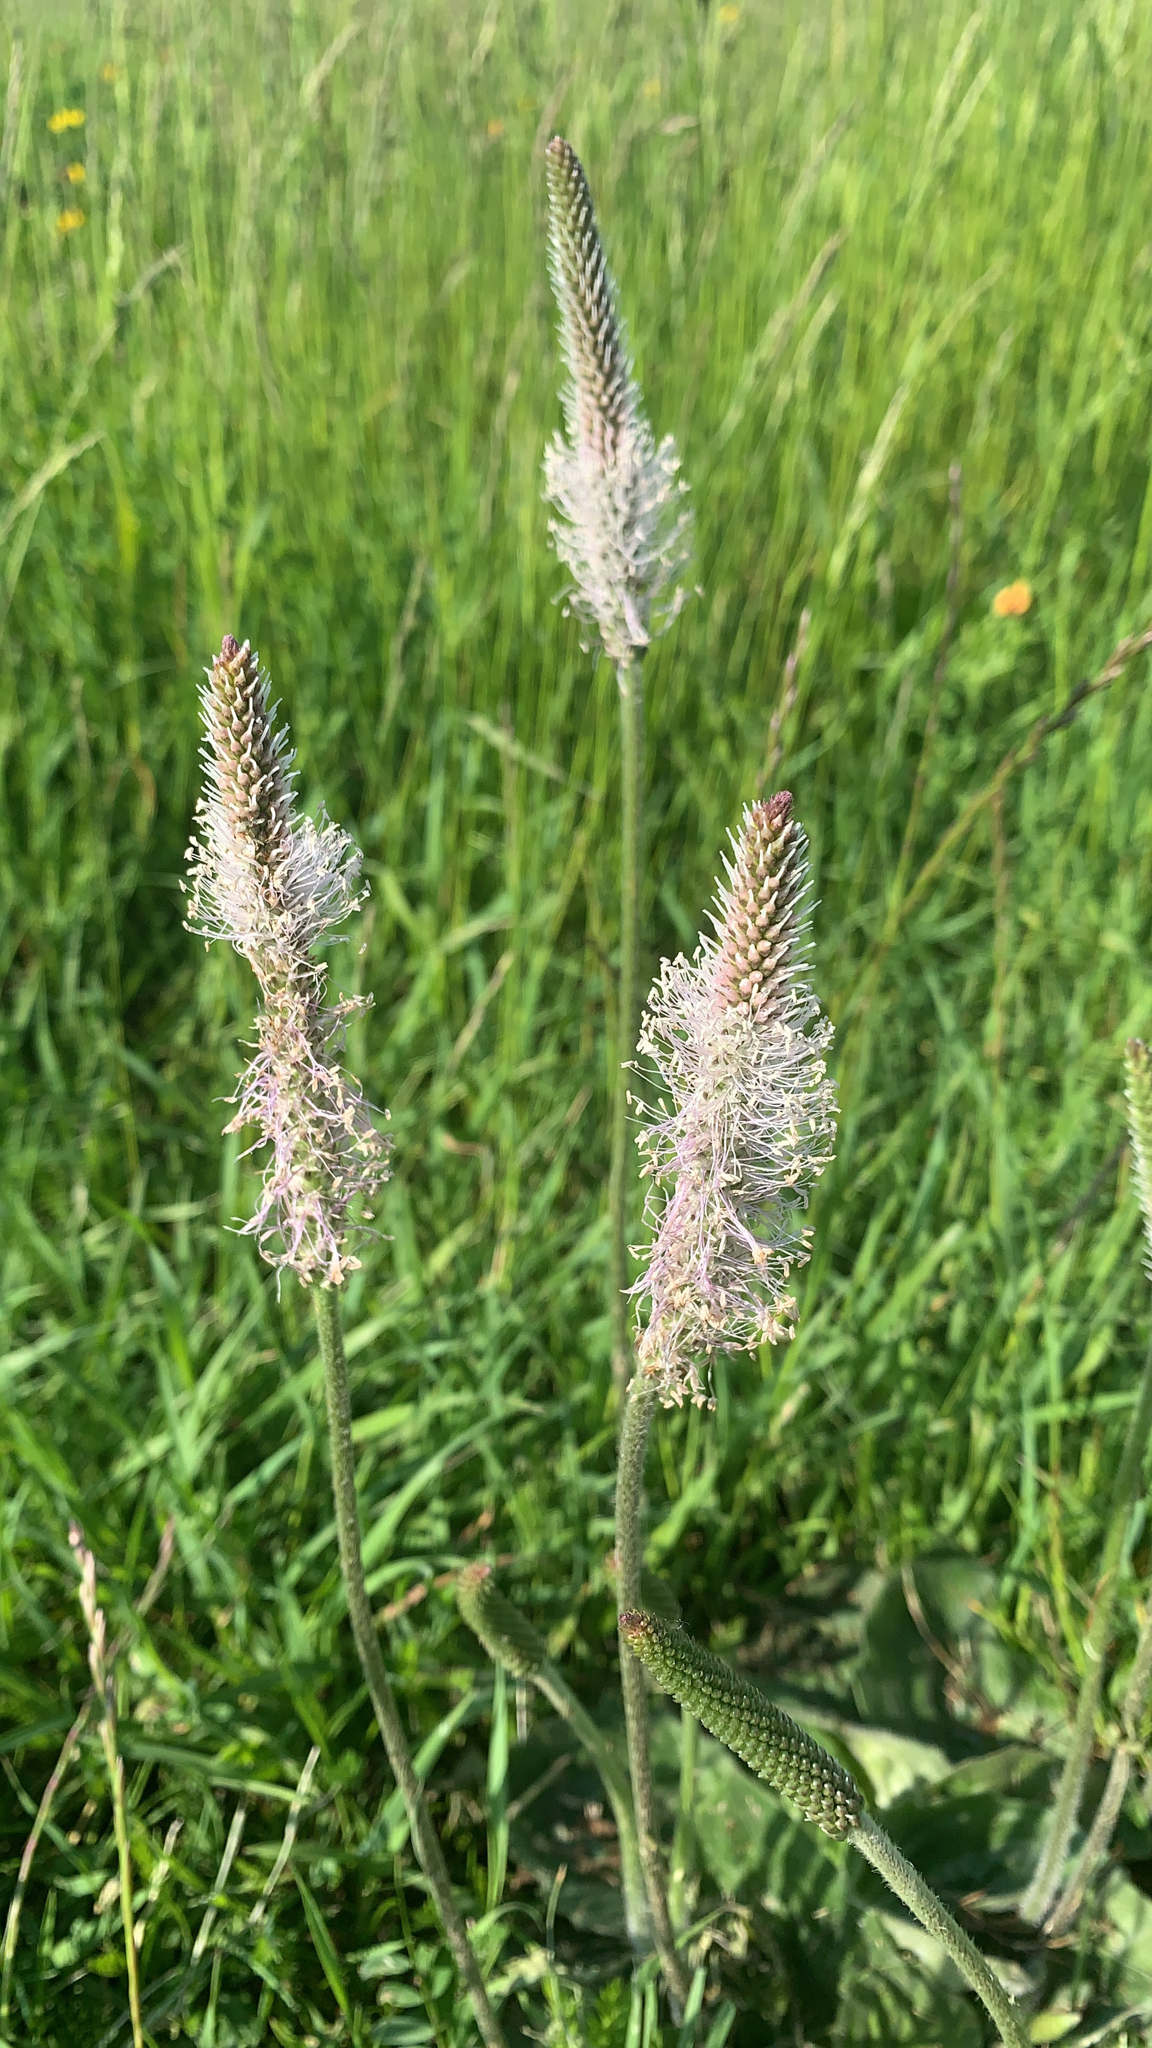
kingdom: Plantae
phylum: Tracheophyta
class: Magnoliopsida
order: Lamiales
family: Plantaginaceae
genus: Plantago
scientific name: Plantago media
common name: Hoary plantain
